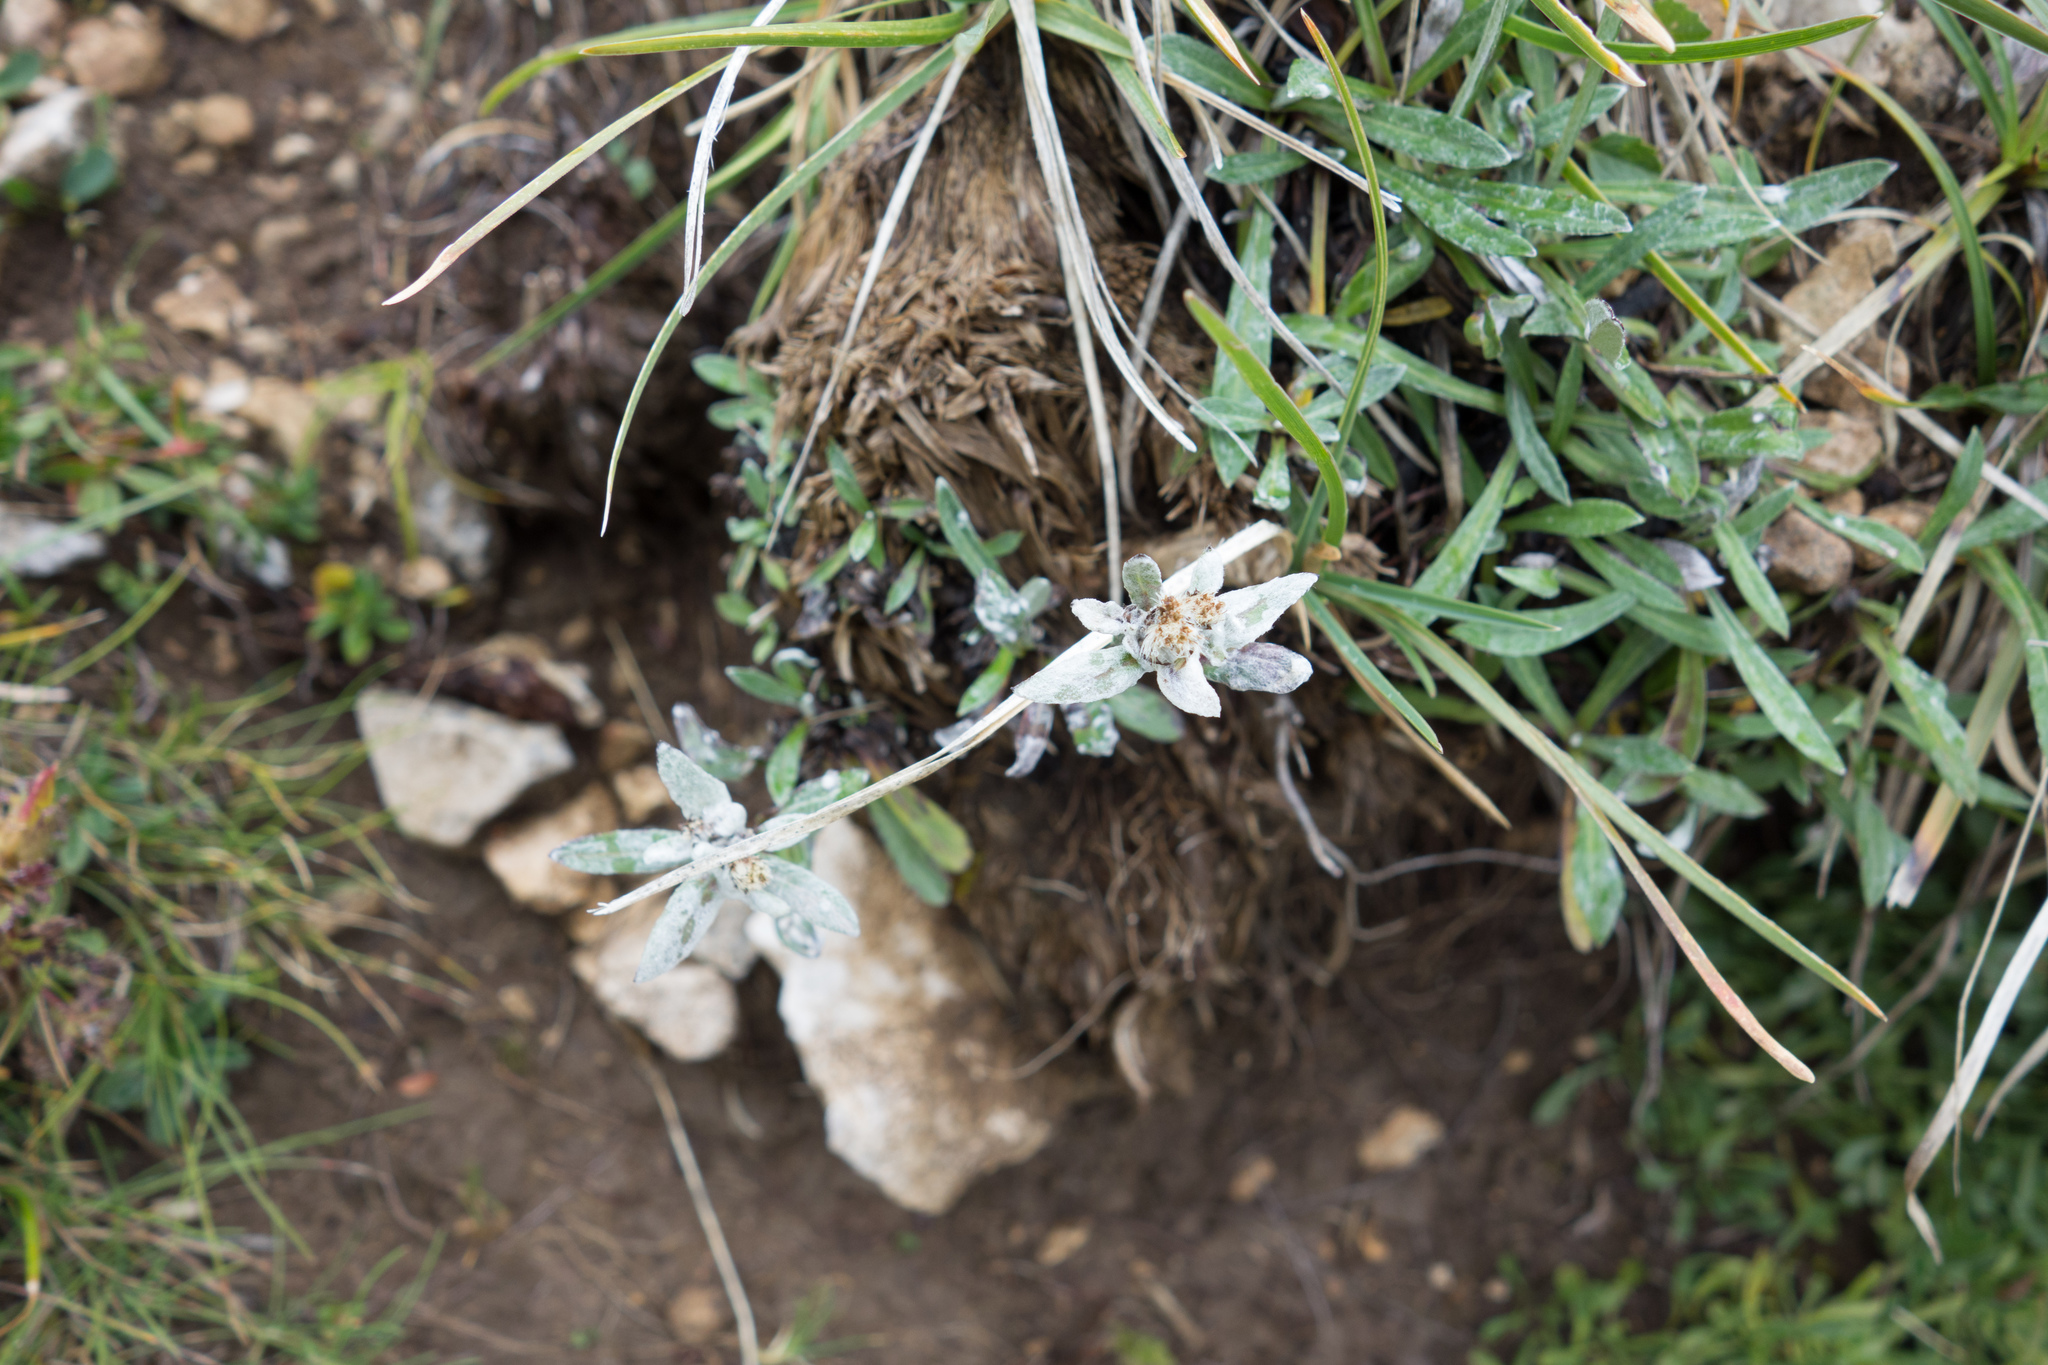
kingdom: Plantae
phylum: Tracheophyta
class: Magnoliopsida
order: Asterales
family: Asteraceae
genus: Leontopodium
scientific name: Leontopodium nivale
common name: Edelweiss
